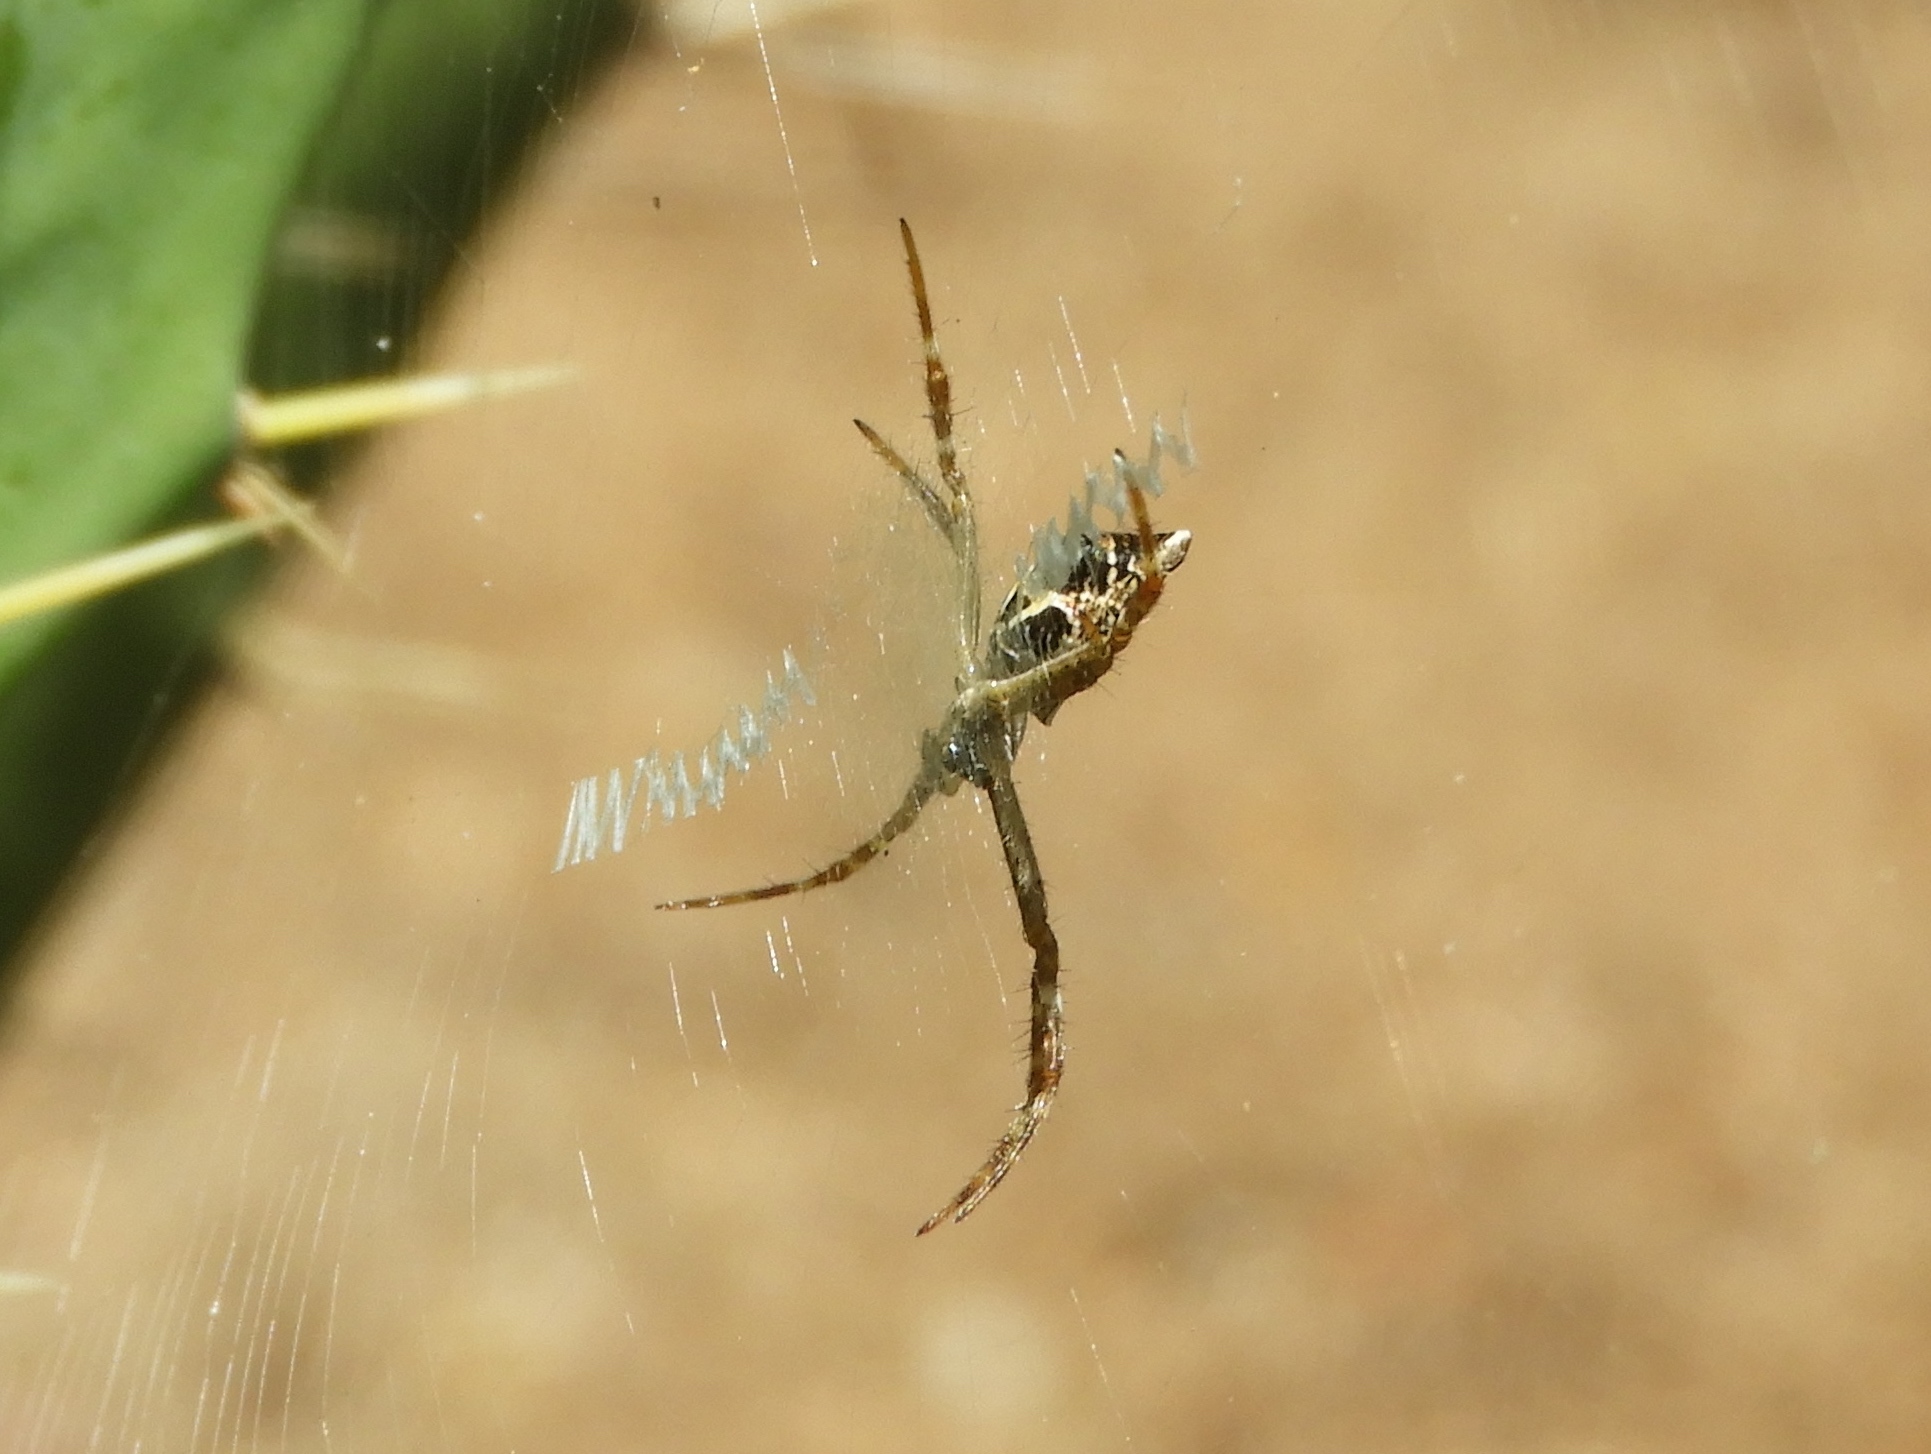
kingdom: Animalia
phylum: Arthropoda
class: Arachnida
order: Araneae
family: Araneidae
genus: Argiope
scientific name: Argiope argentata
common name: Orb weavers
